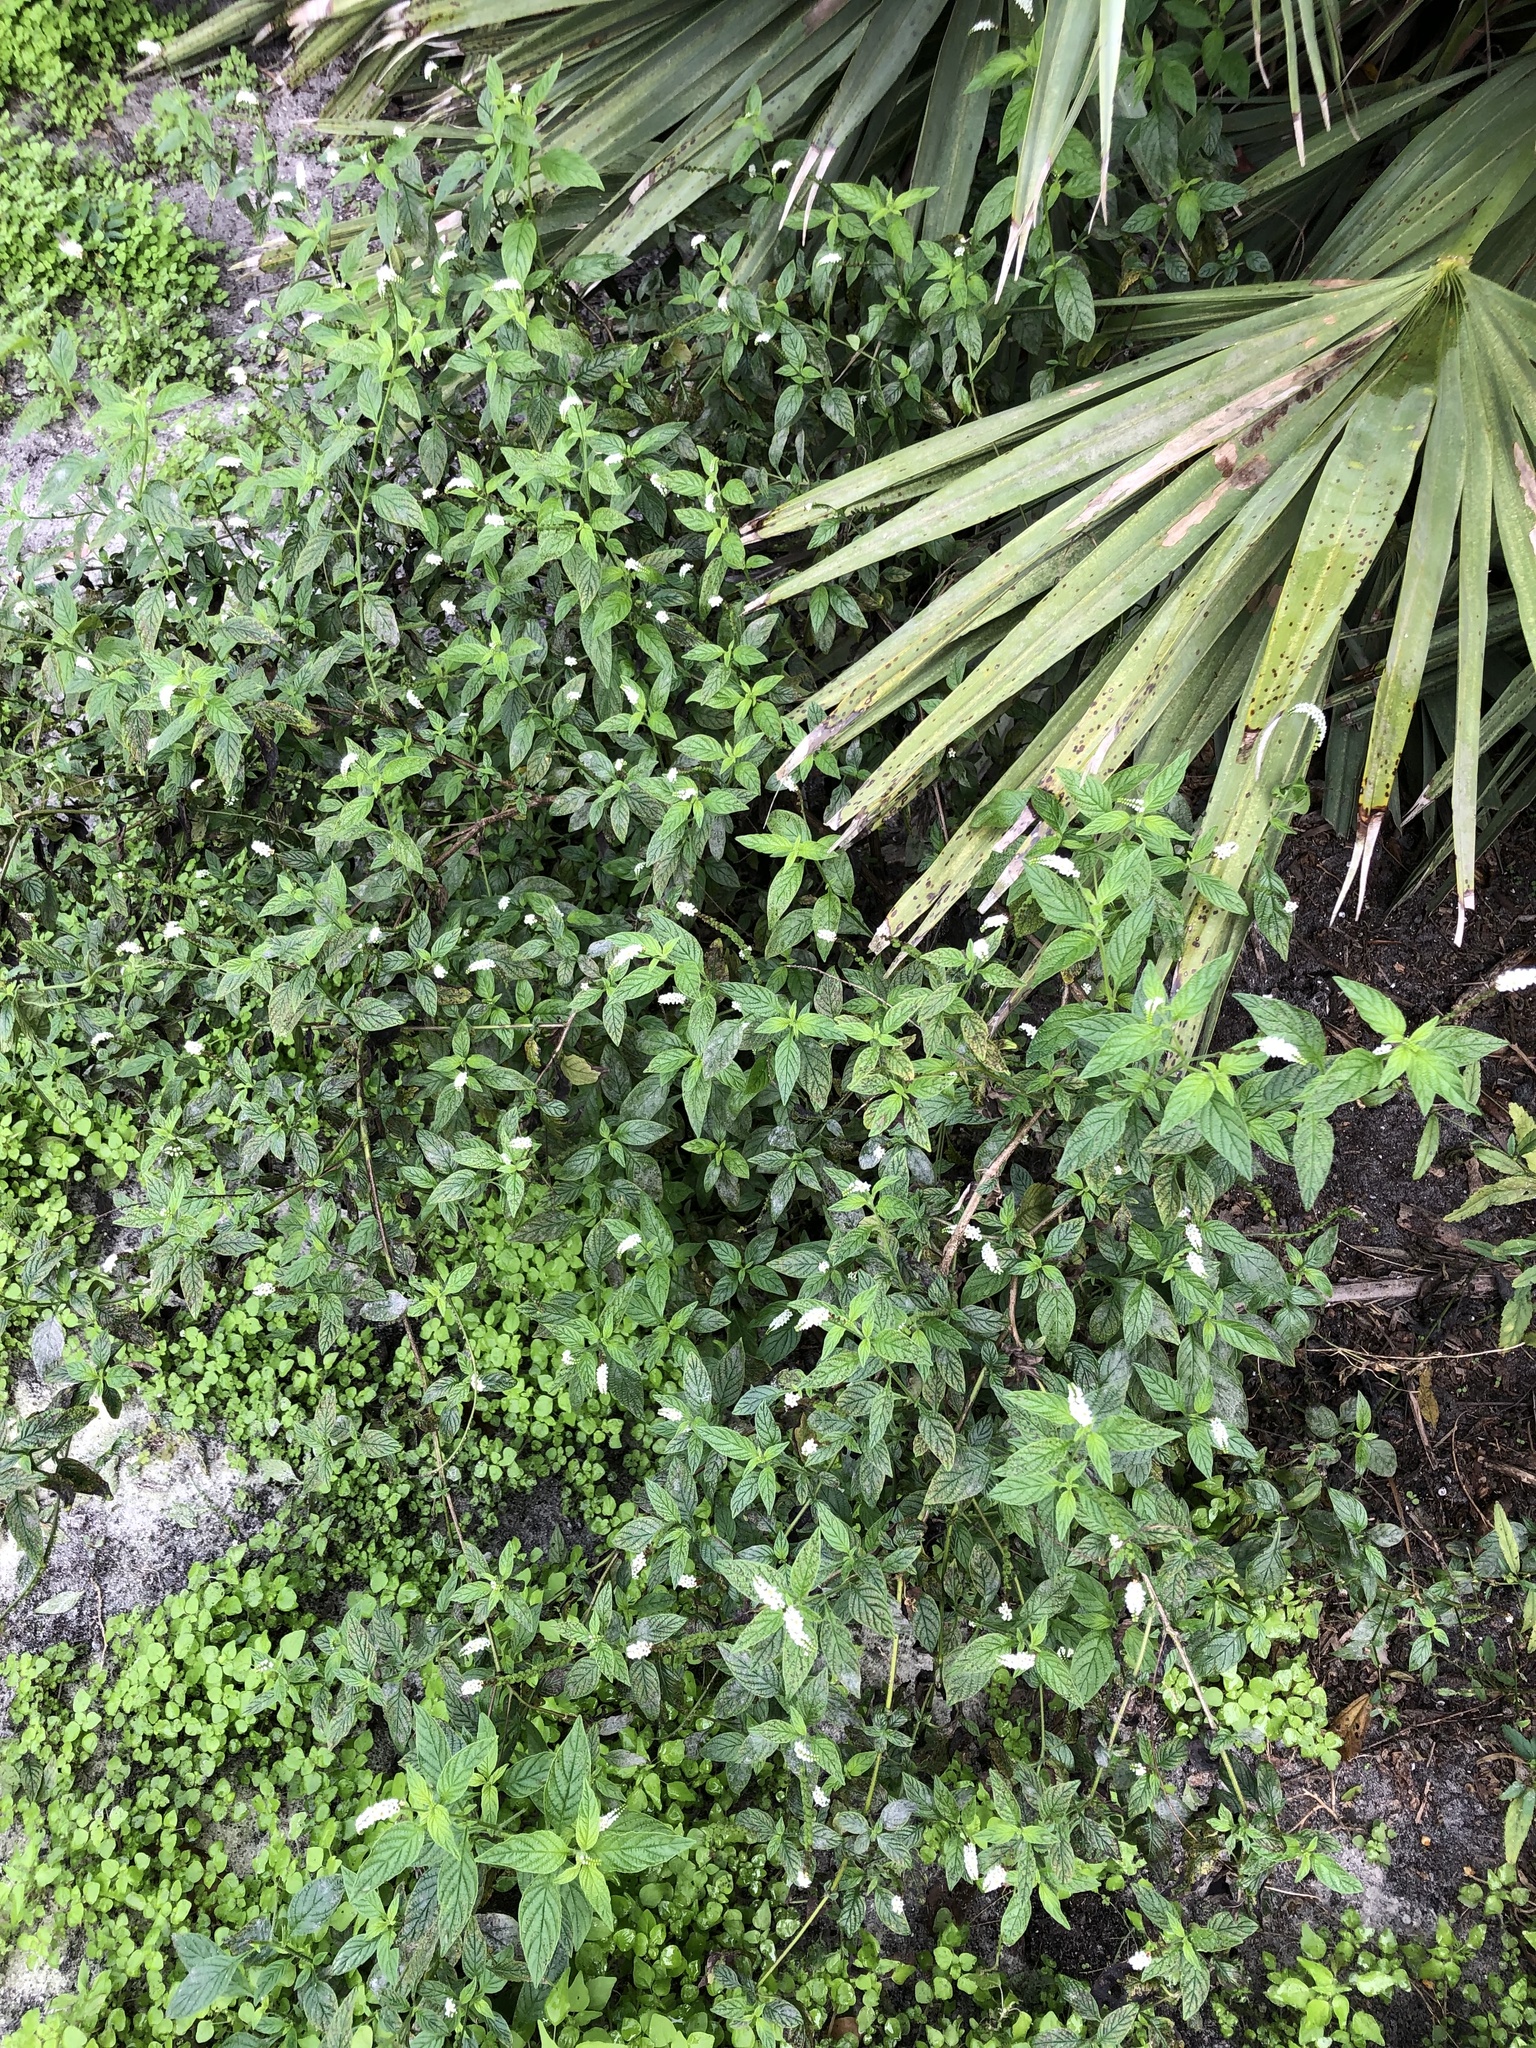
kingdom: Plantae
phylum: Tracheophyta
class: Magnoliopsida
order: Boraginales
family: Heliotropiaceae
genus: Heliotropium
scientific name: Heliotropium angiospermum
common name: Eye bright
